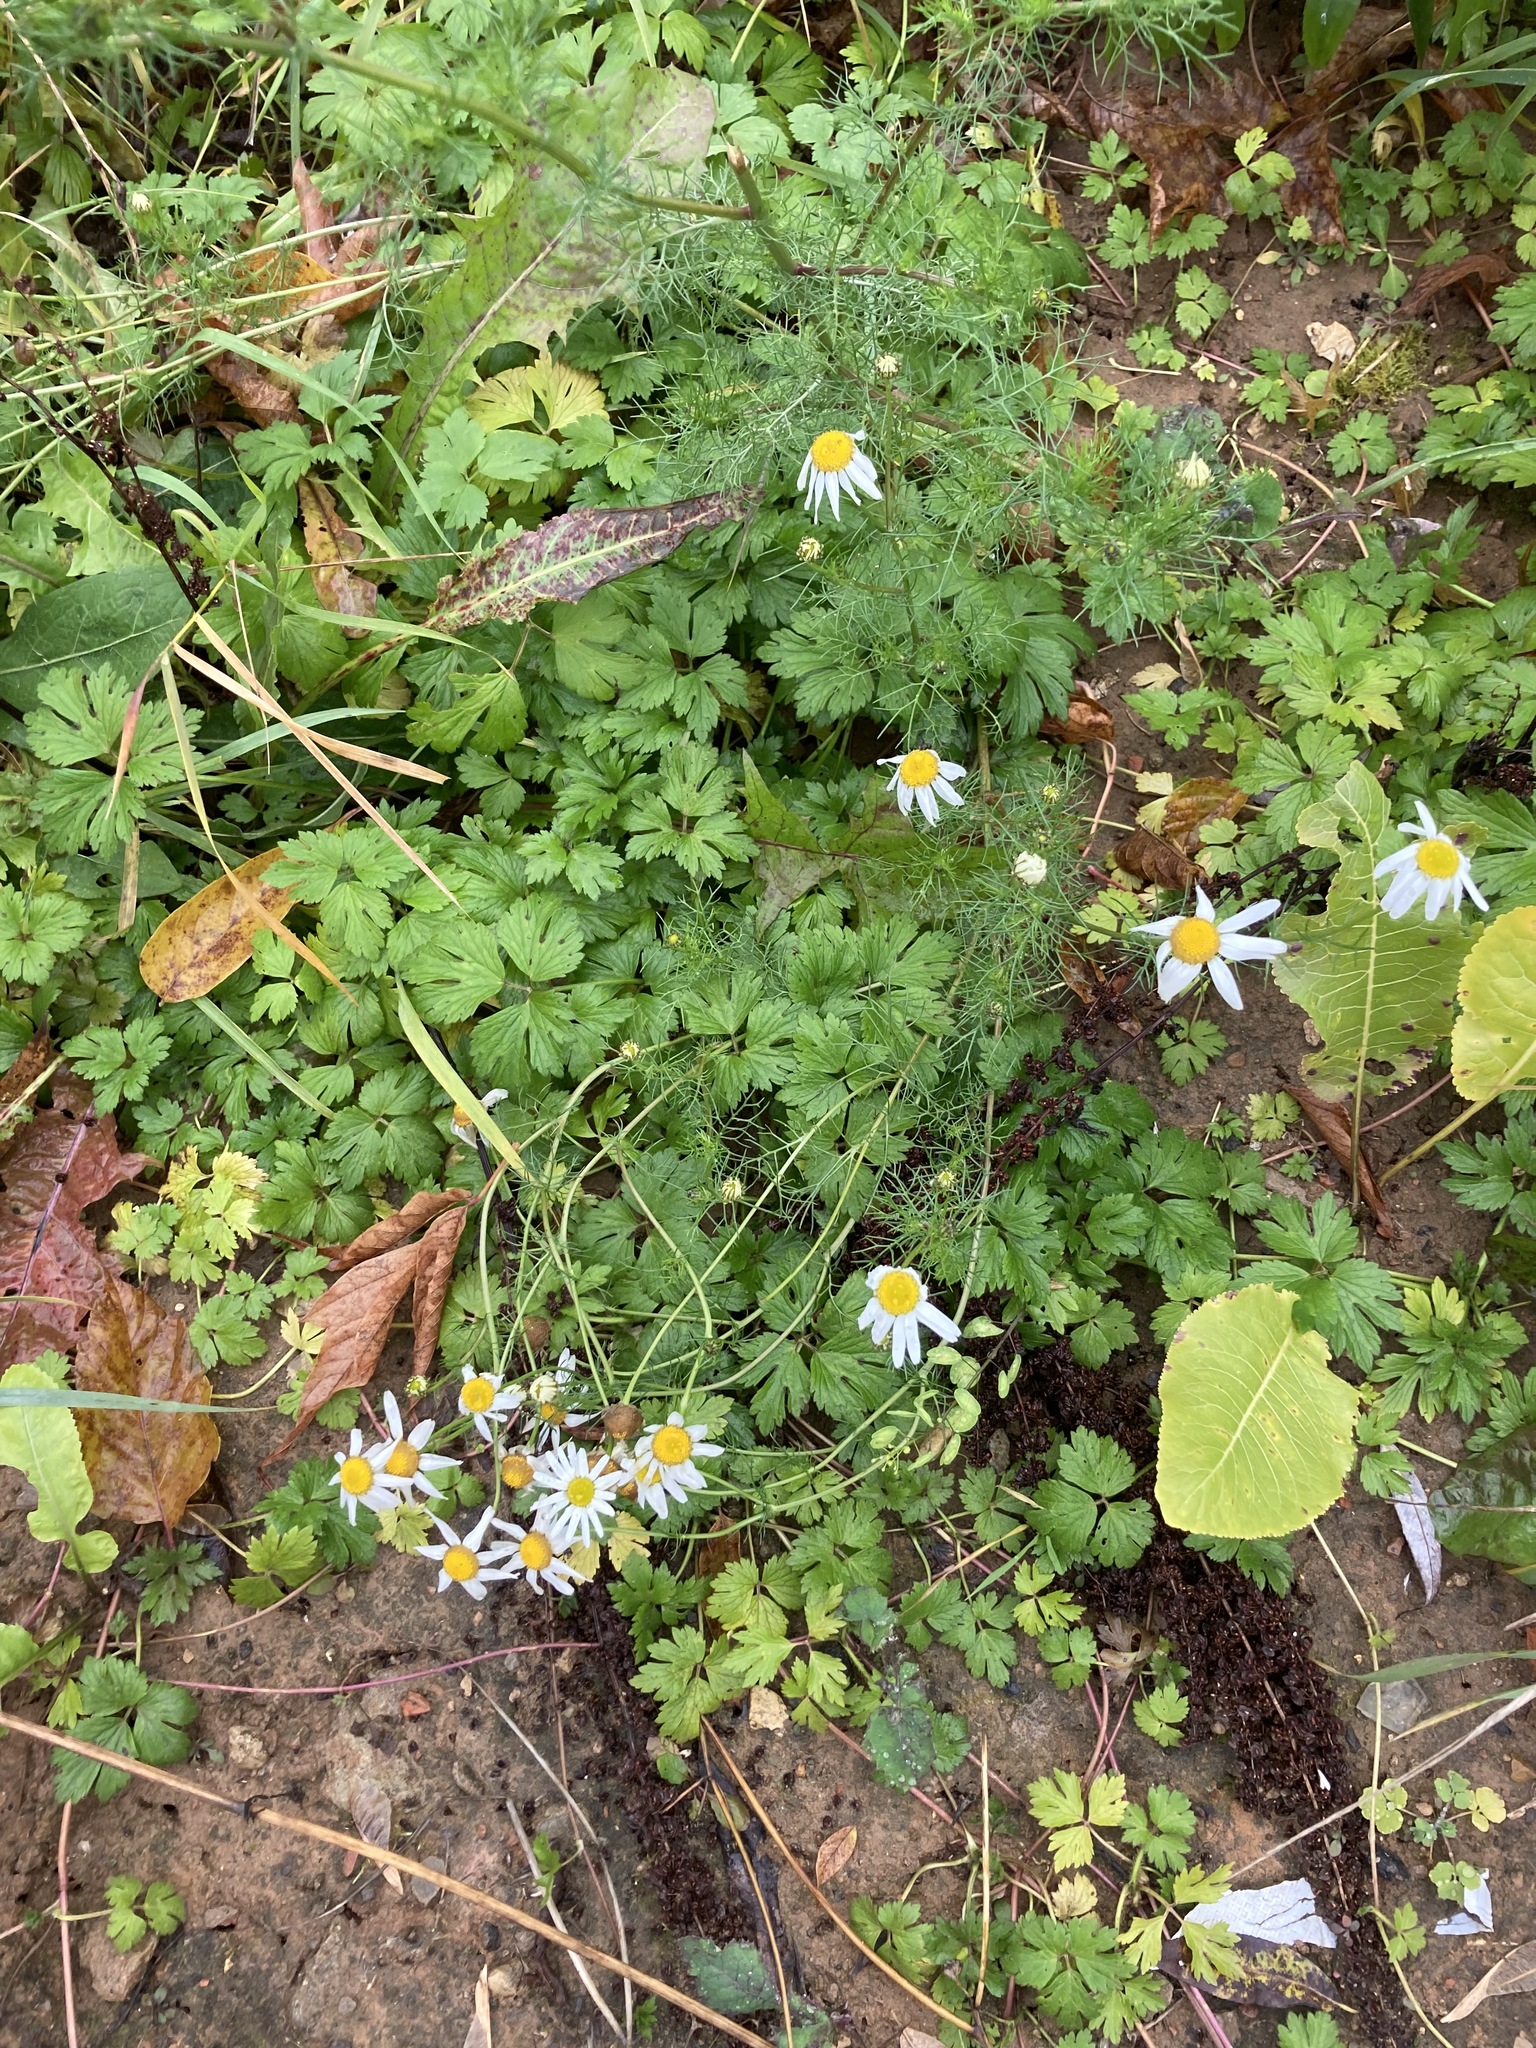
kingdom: Plantae
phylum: Tracheophyta
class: Magnoliopsida
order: Asterales
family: Asteraceae
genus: Tripleurospermum
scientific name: Tripleurospermum inodorum
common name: Scentless mayweed
